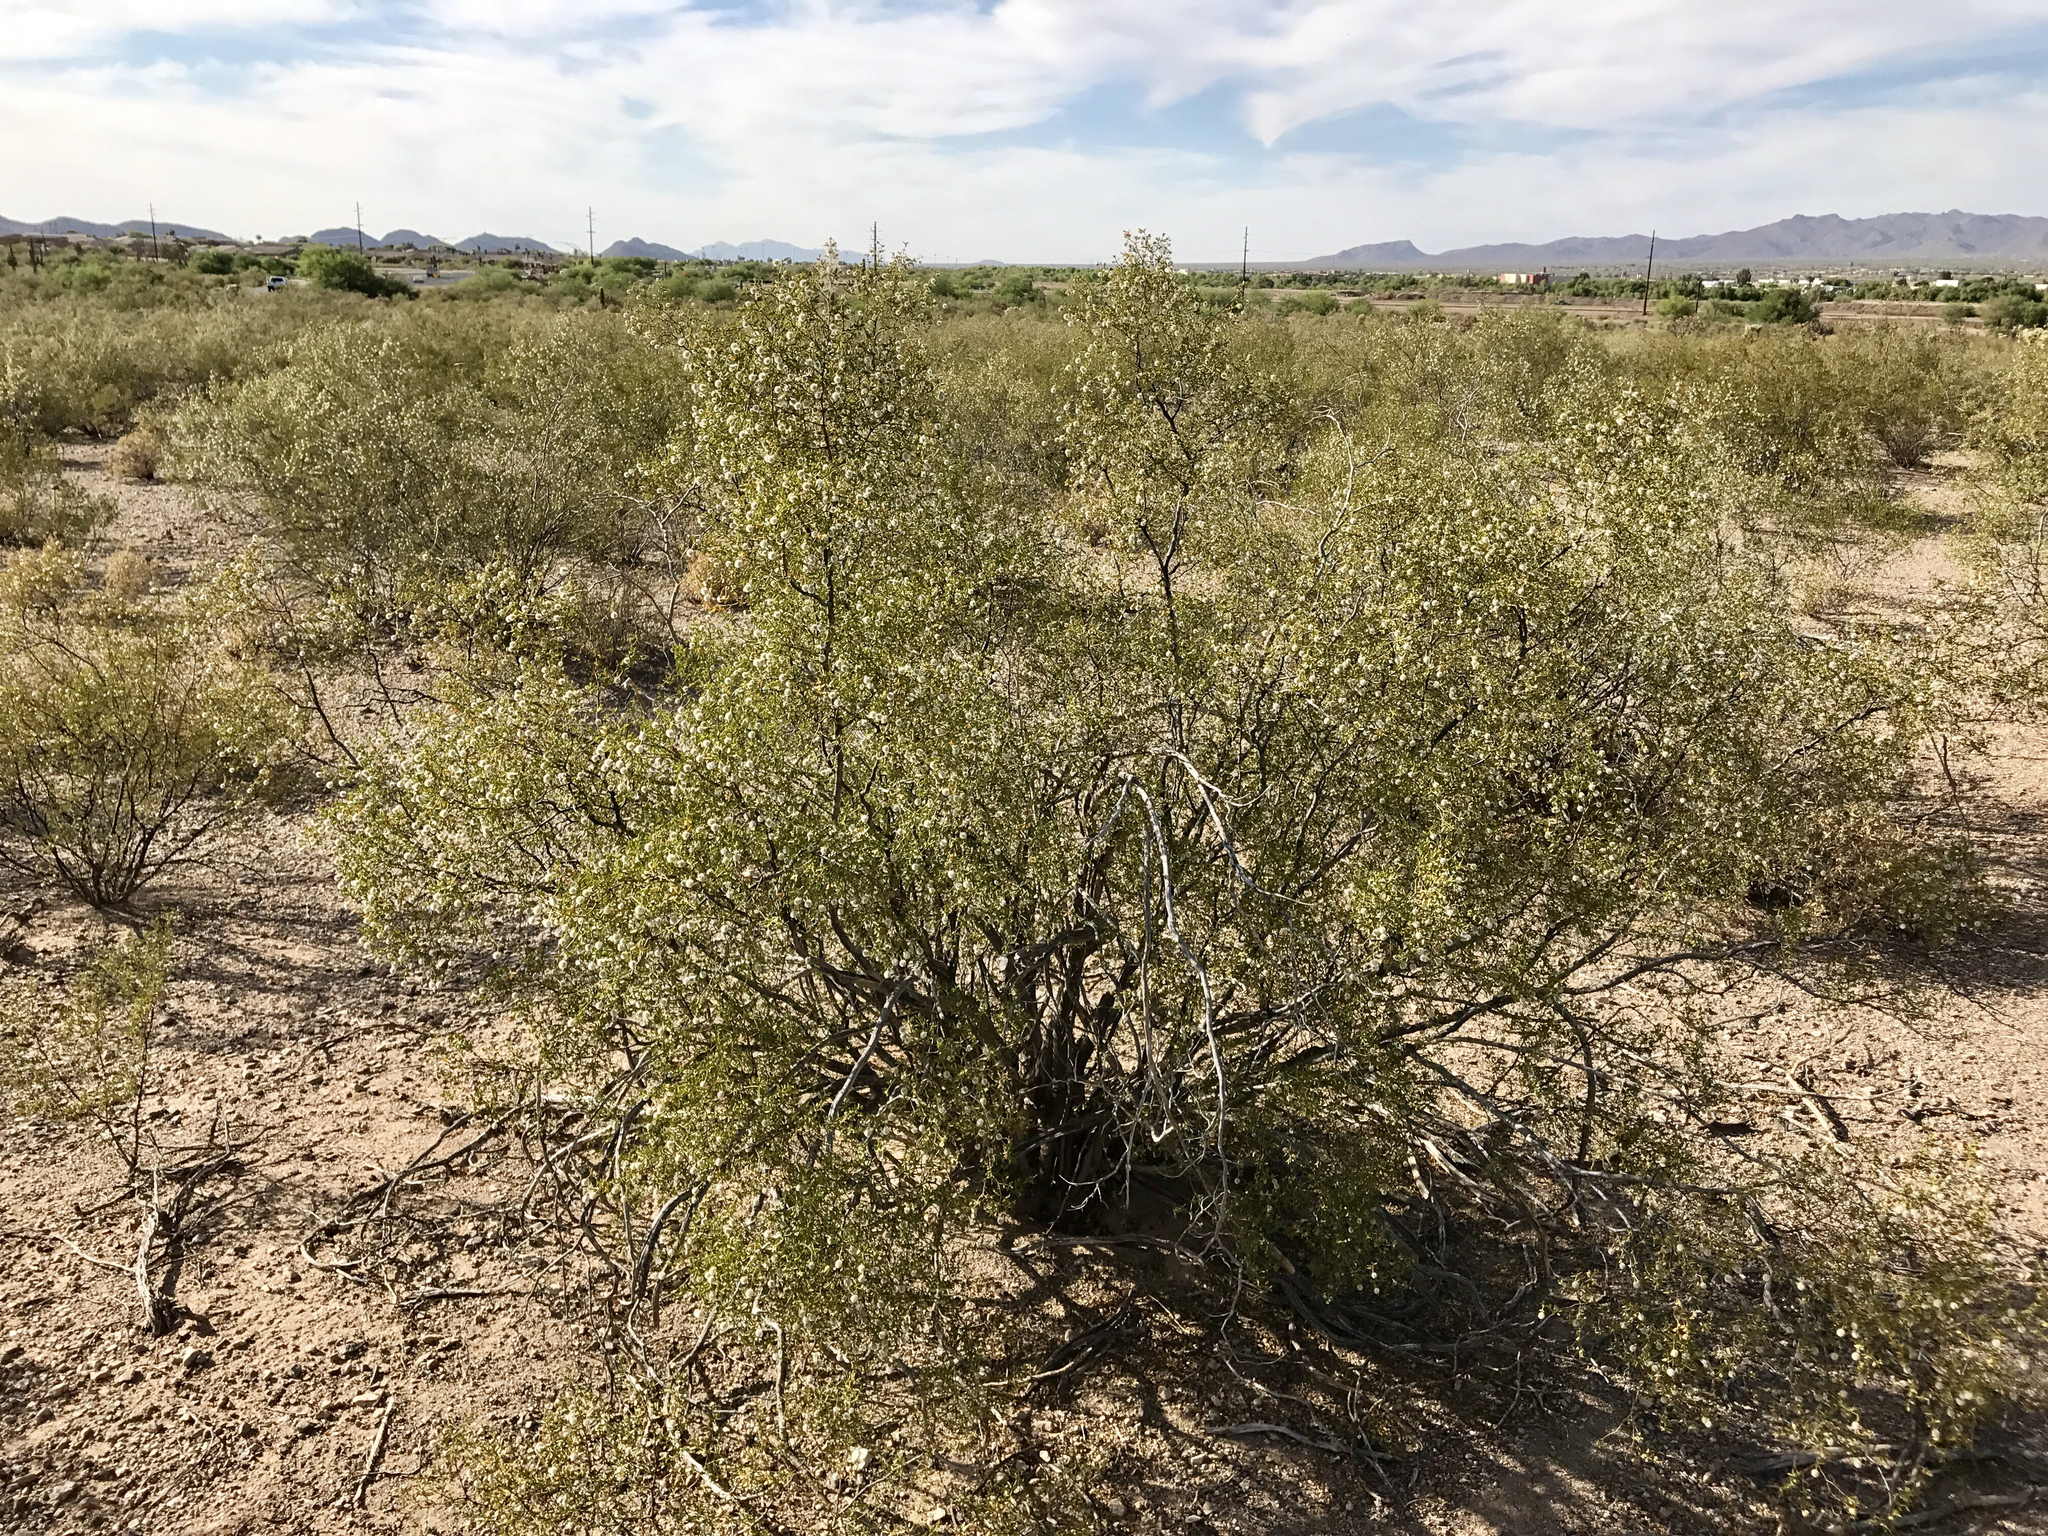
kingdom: Plantae
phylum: Tracheophyta
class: Magnoliopsida
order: Zygophyllales
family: Zygophyllaceae
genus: Larrea
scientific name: Larrea tridentata
